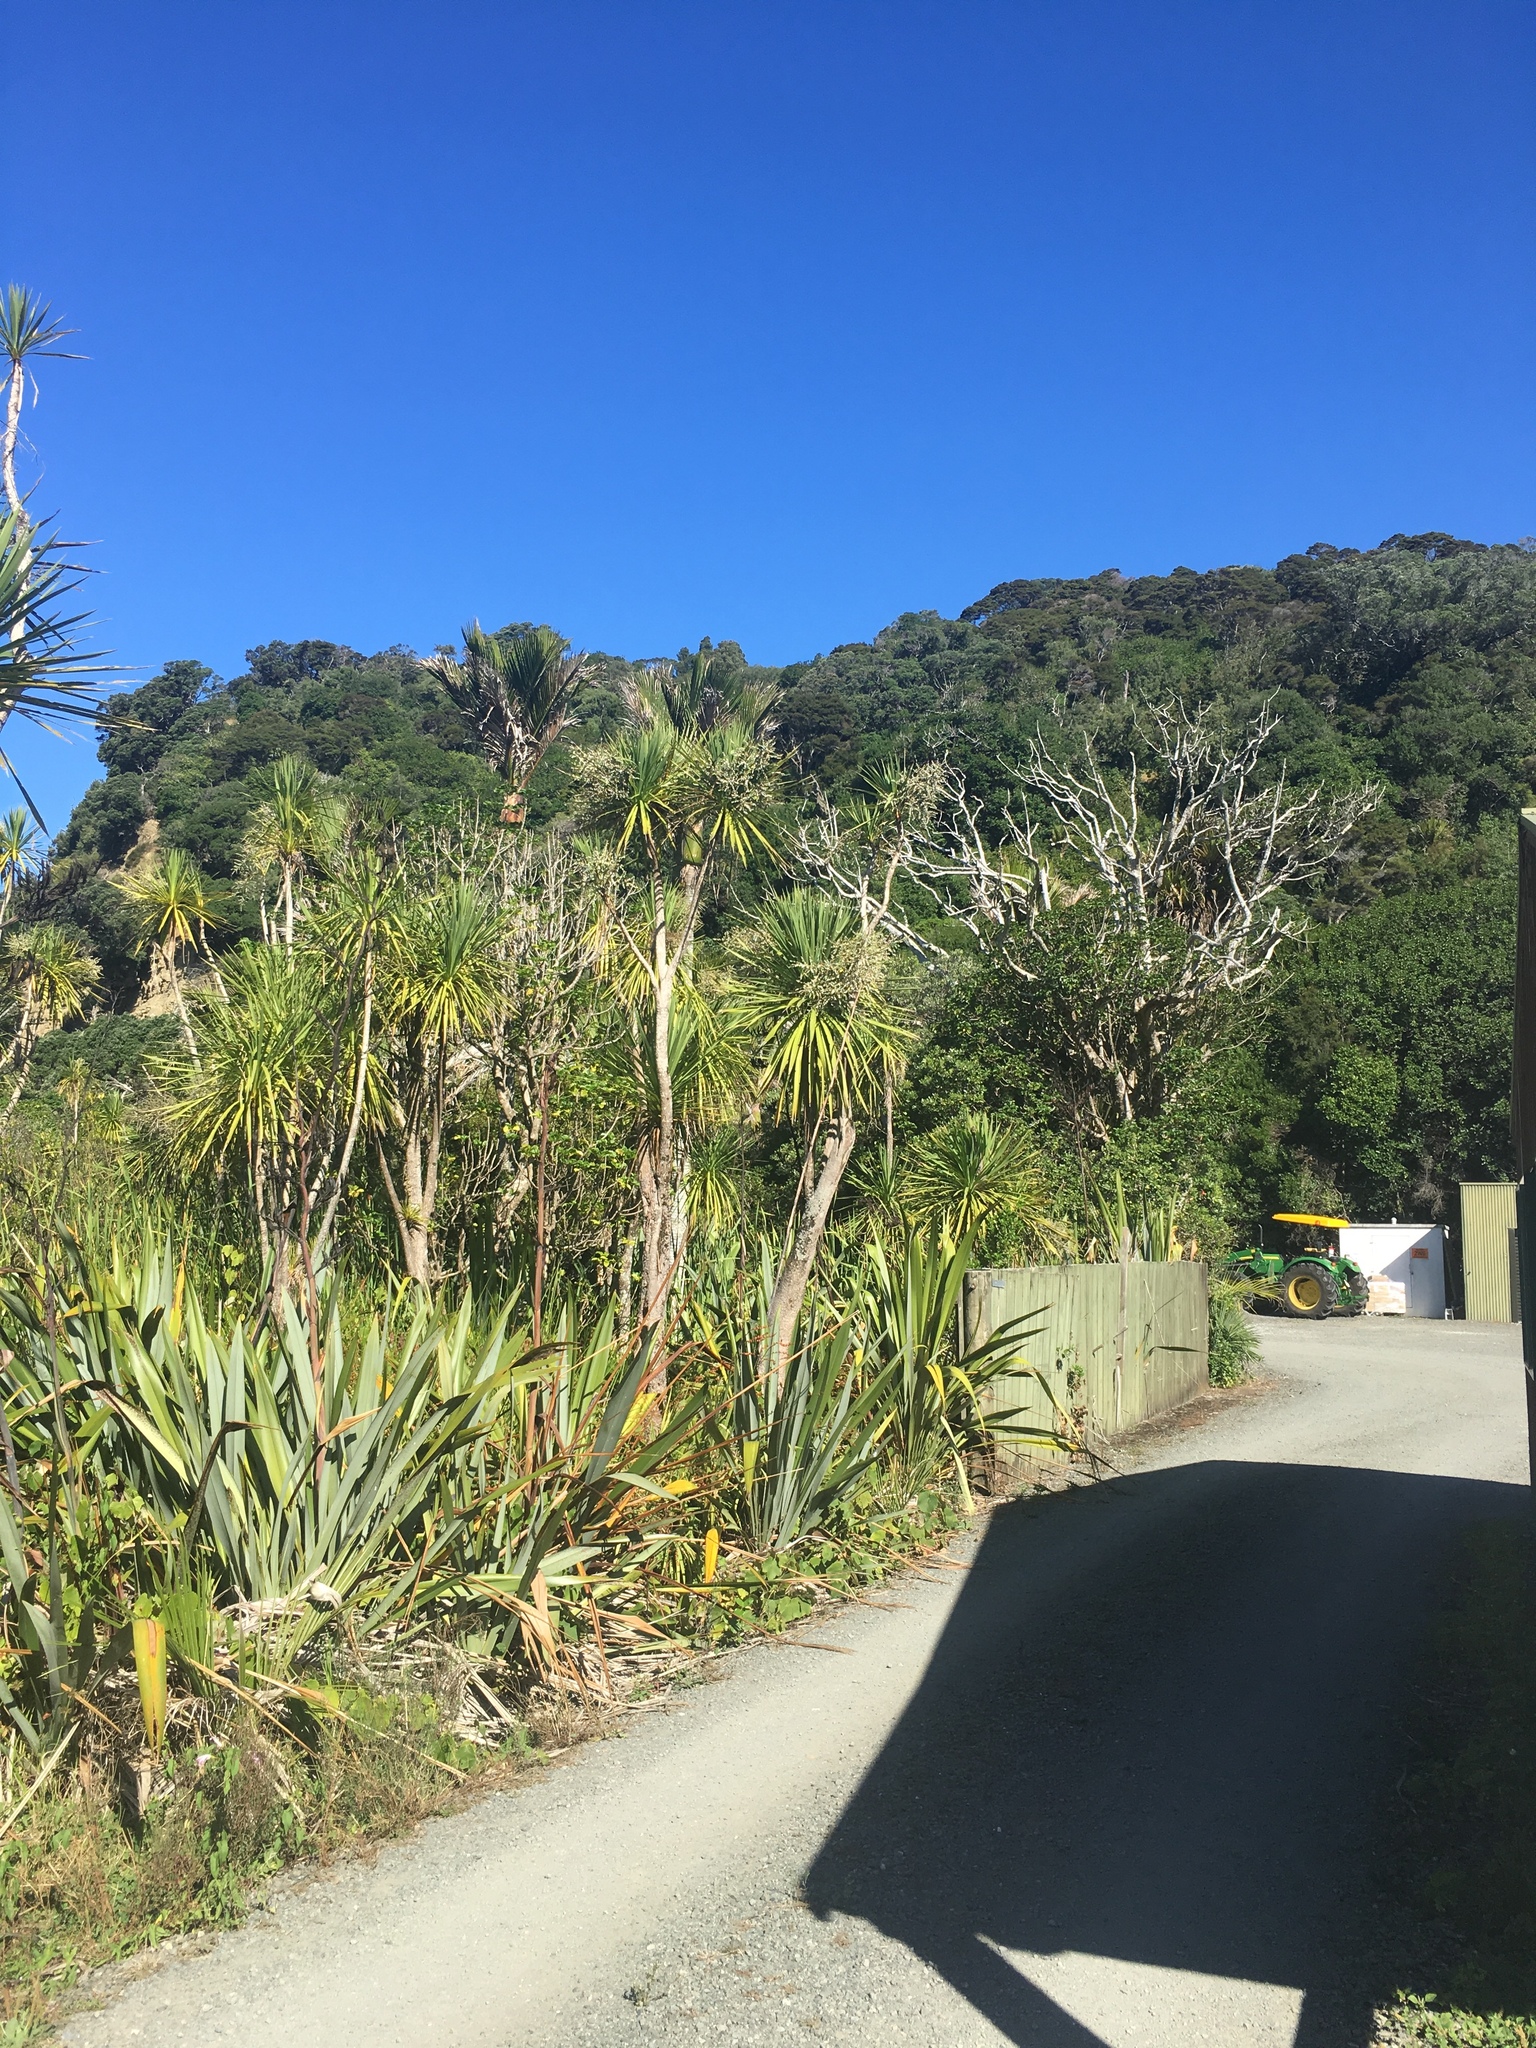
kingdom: Plantae
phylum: Tracheophyta
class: Liliopsida
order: Asparagales
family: Asparagaceae
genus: Cordyline
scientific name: Cordyline australis
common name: Cabbage-palm
